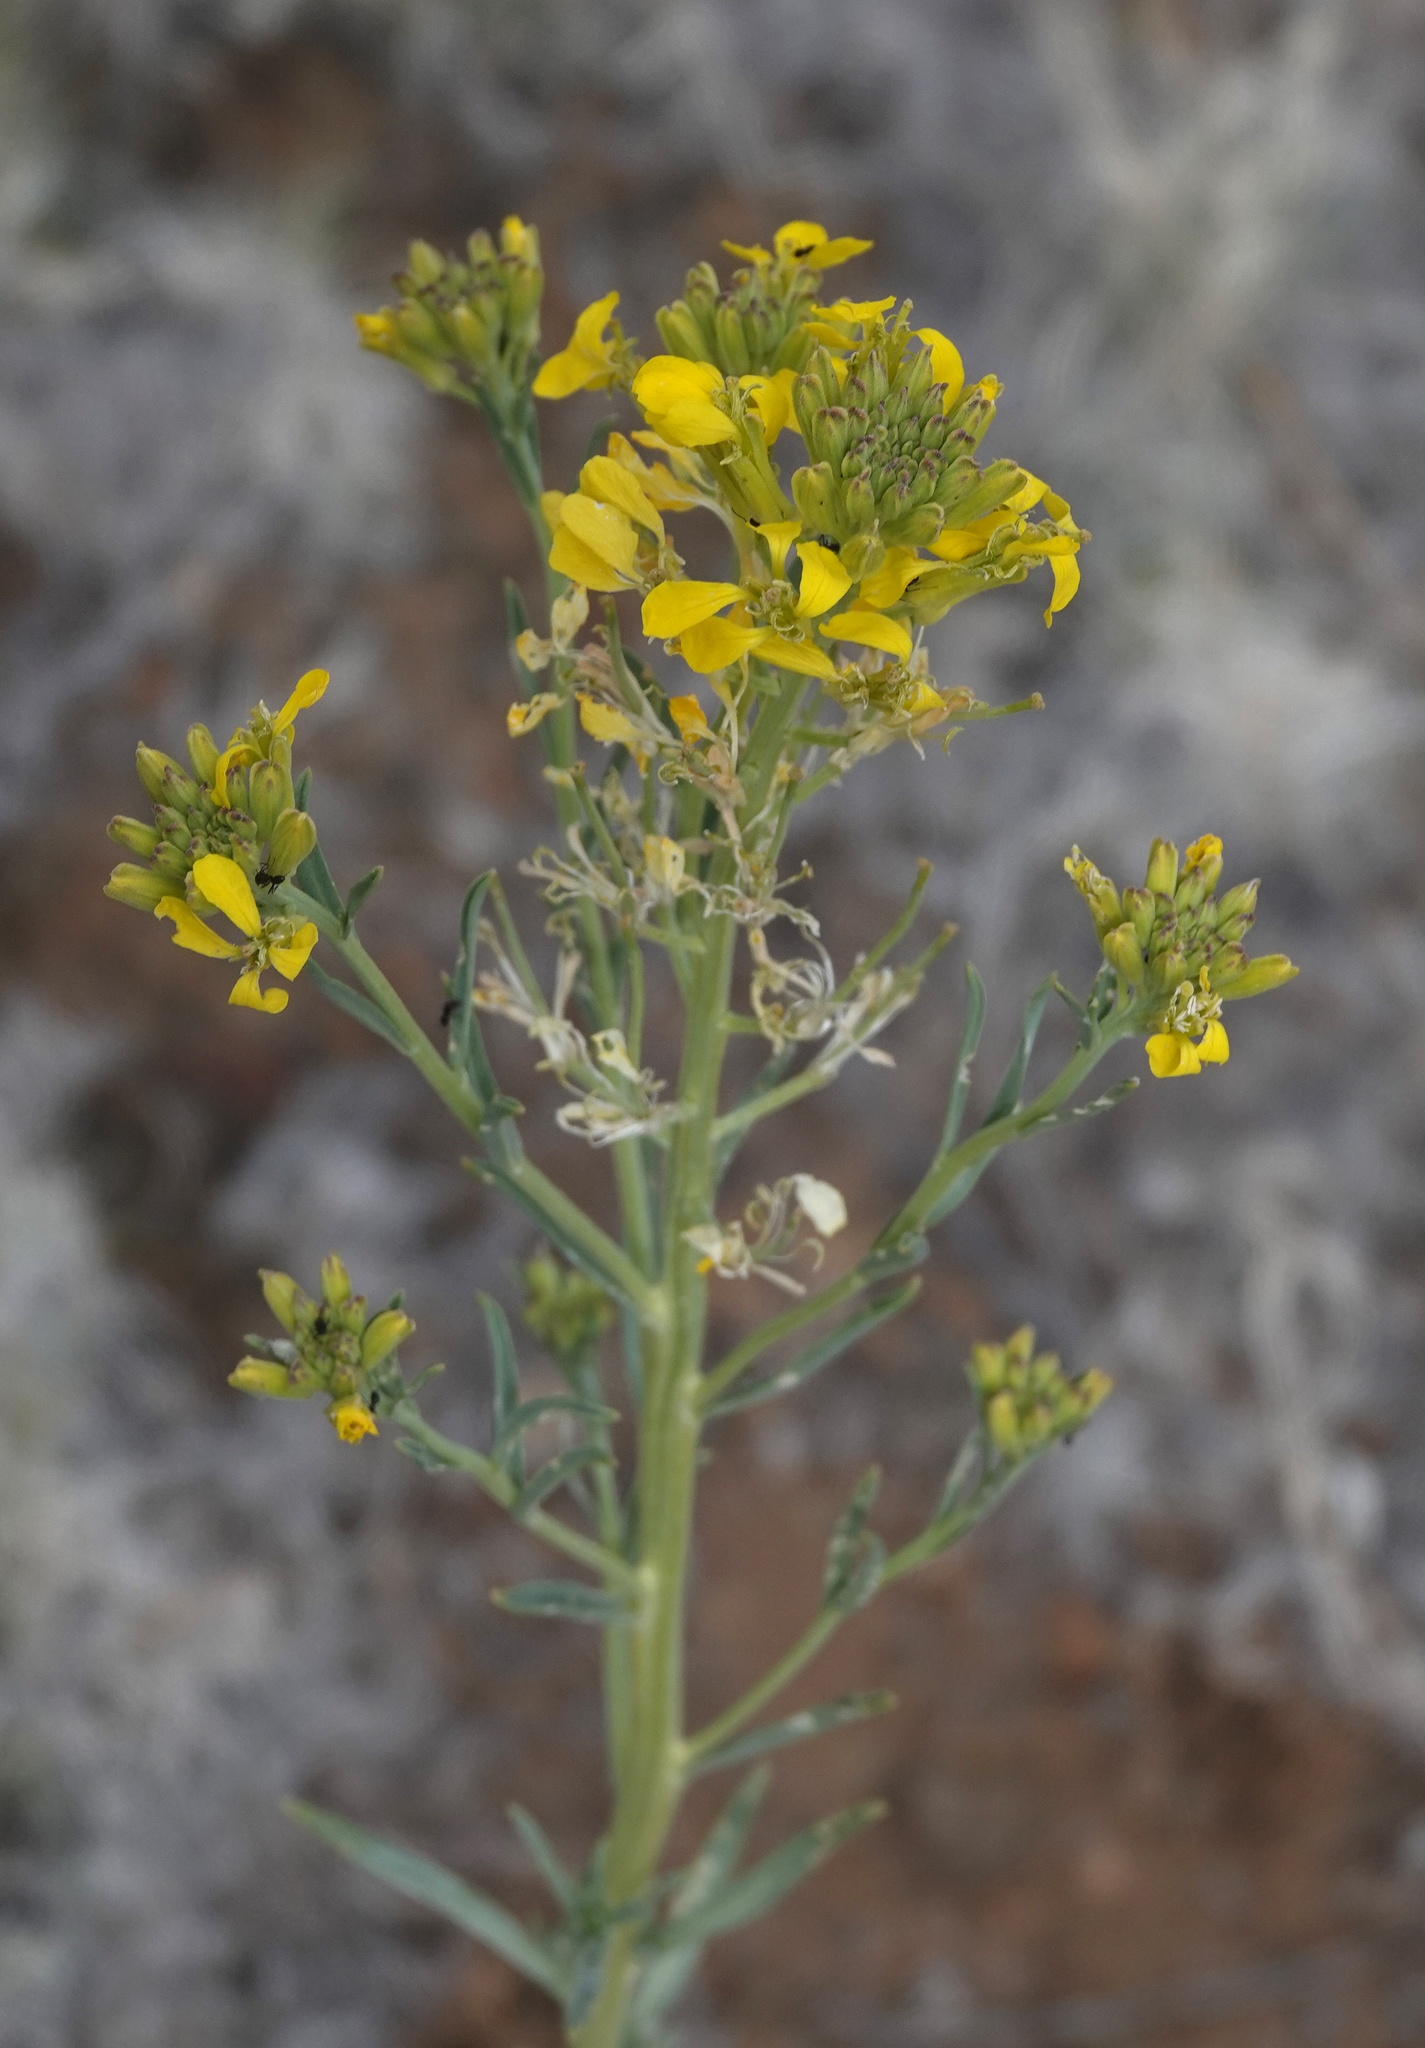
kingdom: Plantae
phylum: Tracheophyta
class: Magnoliopsida
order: Brassicales
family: Brassicaceae
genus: Erysimum
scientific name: Erysimum capitatum
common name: Western wallflower
